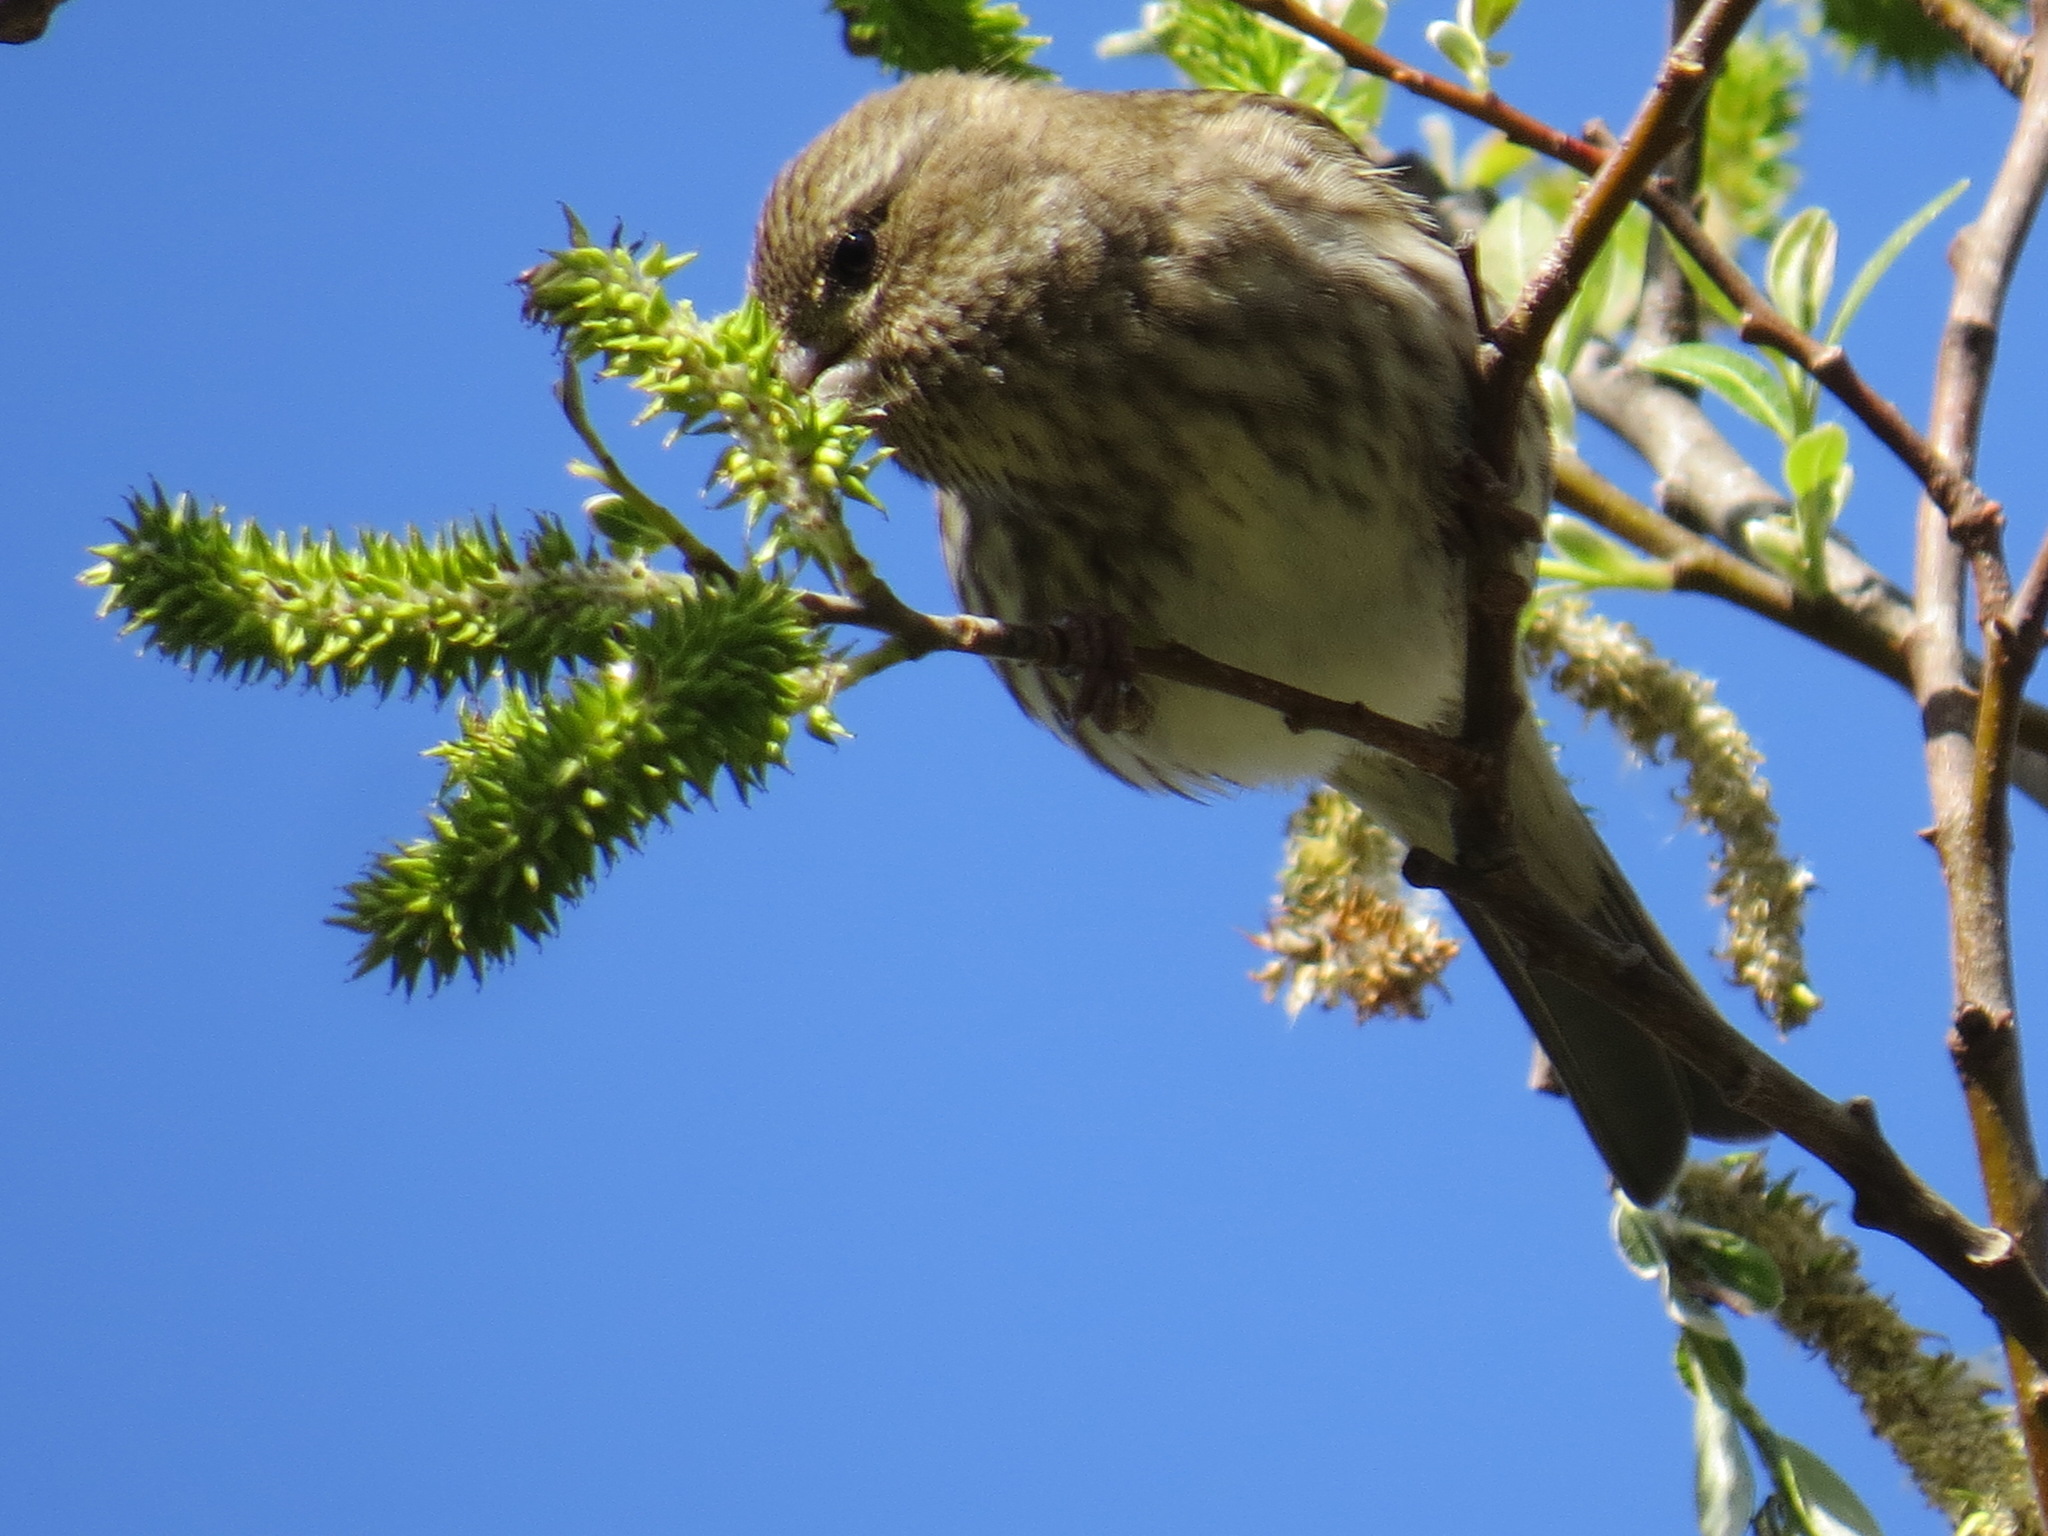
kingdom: Animalia
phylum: Chordata
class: Aves
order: Passeriformes
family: Fringillidae
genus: Haemorhous
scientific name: Haemorhous purpureus
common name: Purple finch
